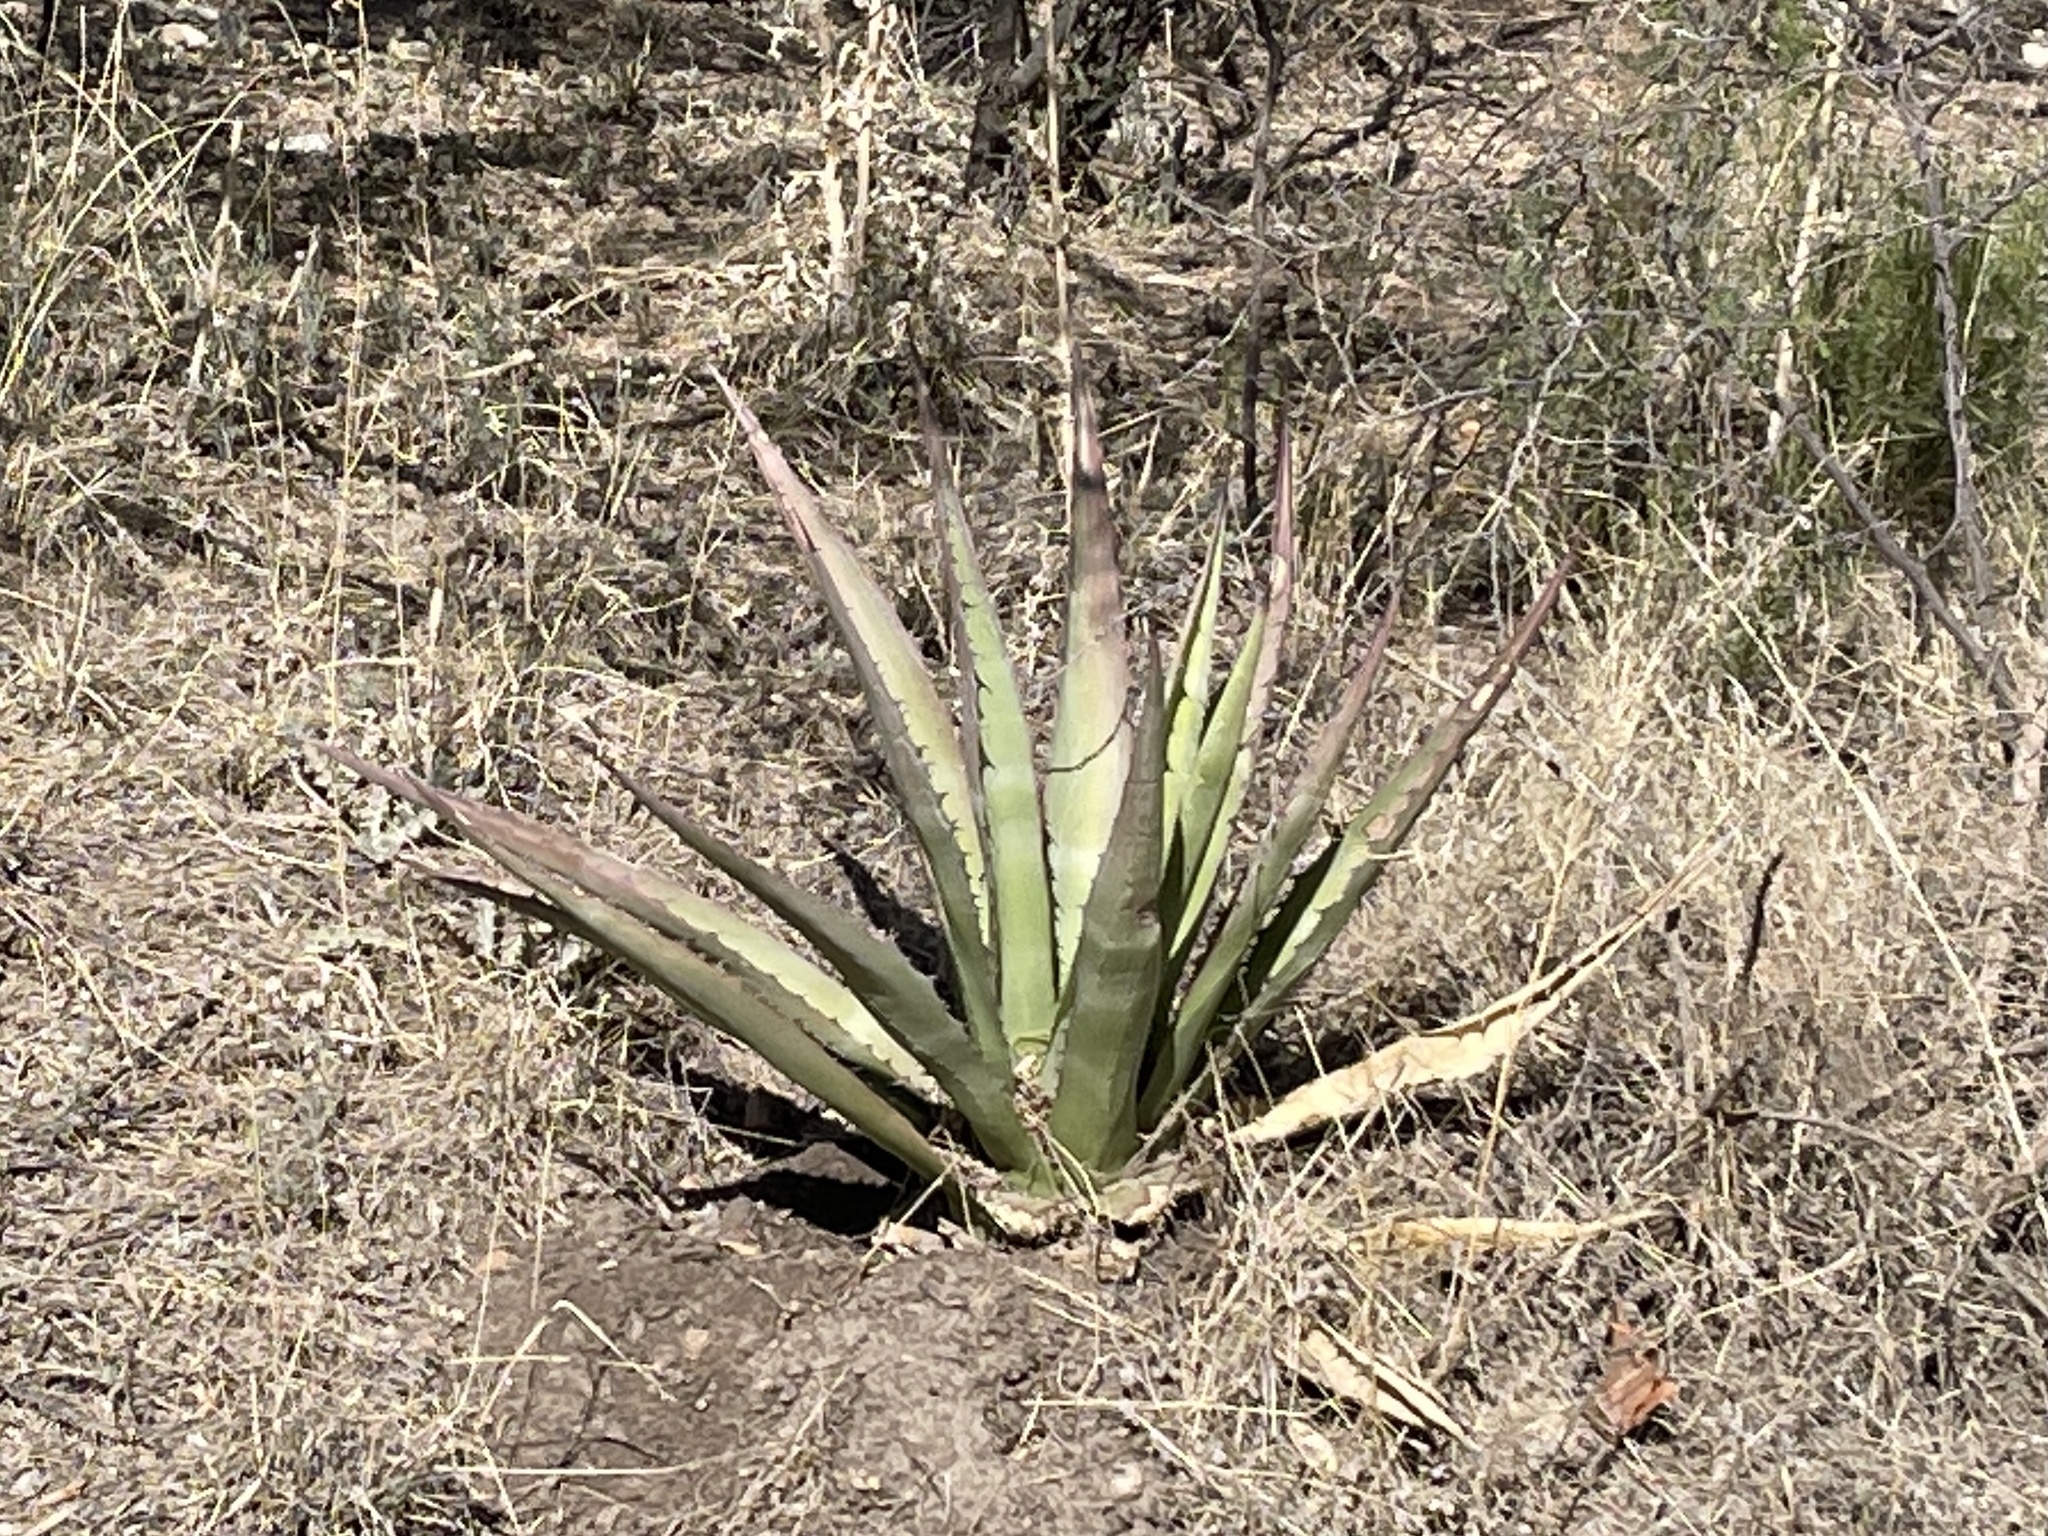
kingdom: Plantae
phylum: Tracheophyta
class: Liliopsida
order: Asparagales
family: Asparagaceae
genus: Agave
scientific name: Agave palmeri
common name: Palmer agave
